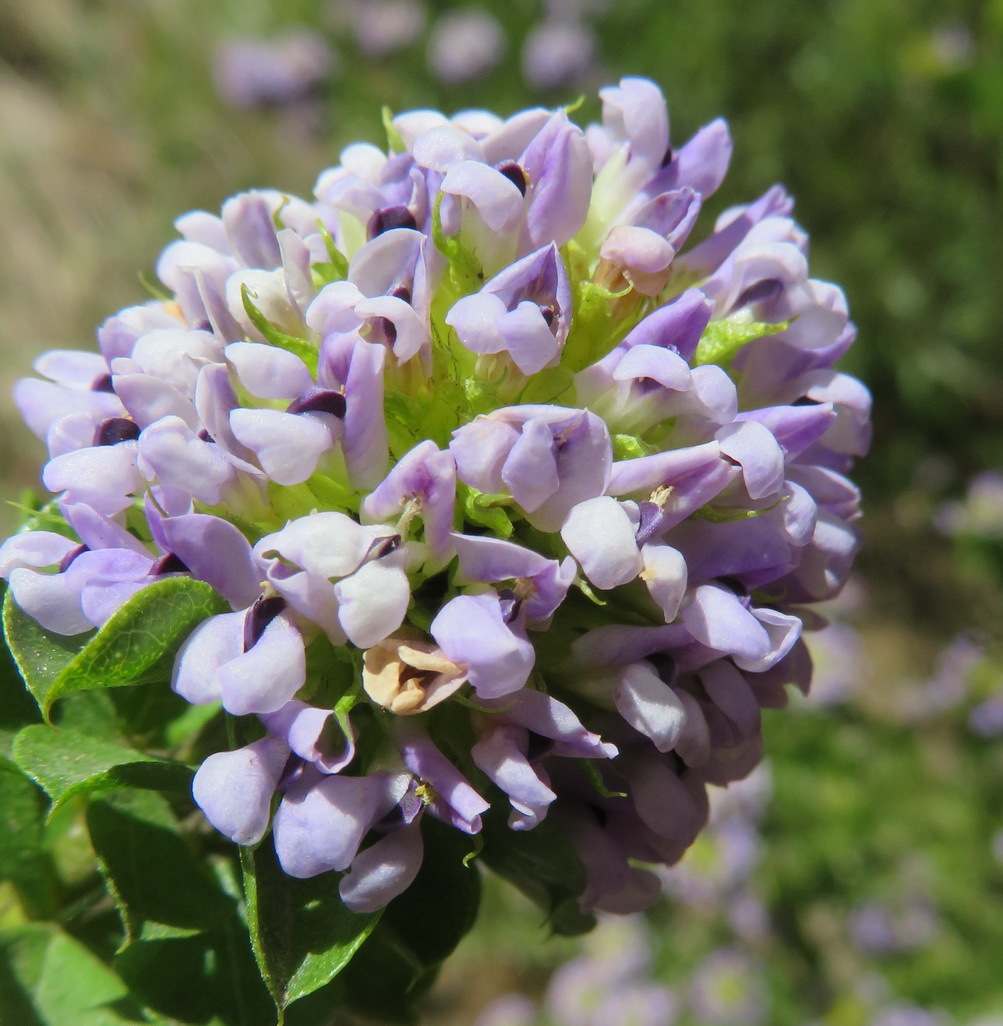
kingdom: Plantae
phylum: Tracheophyta
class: Magnoliopsida
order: Fabales
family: Fabaceae
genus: Psoralea
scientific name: Psoralea acuminata
